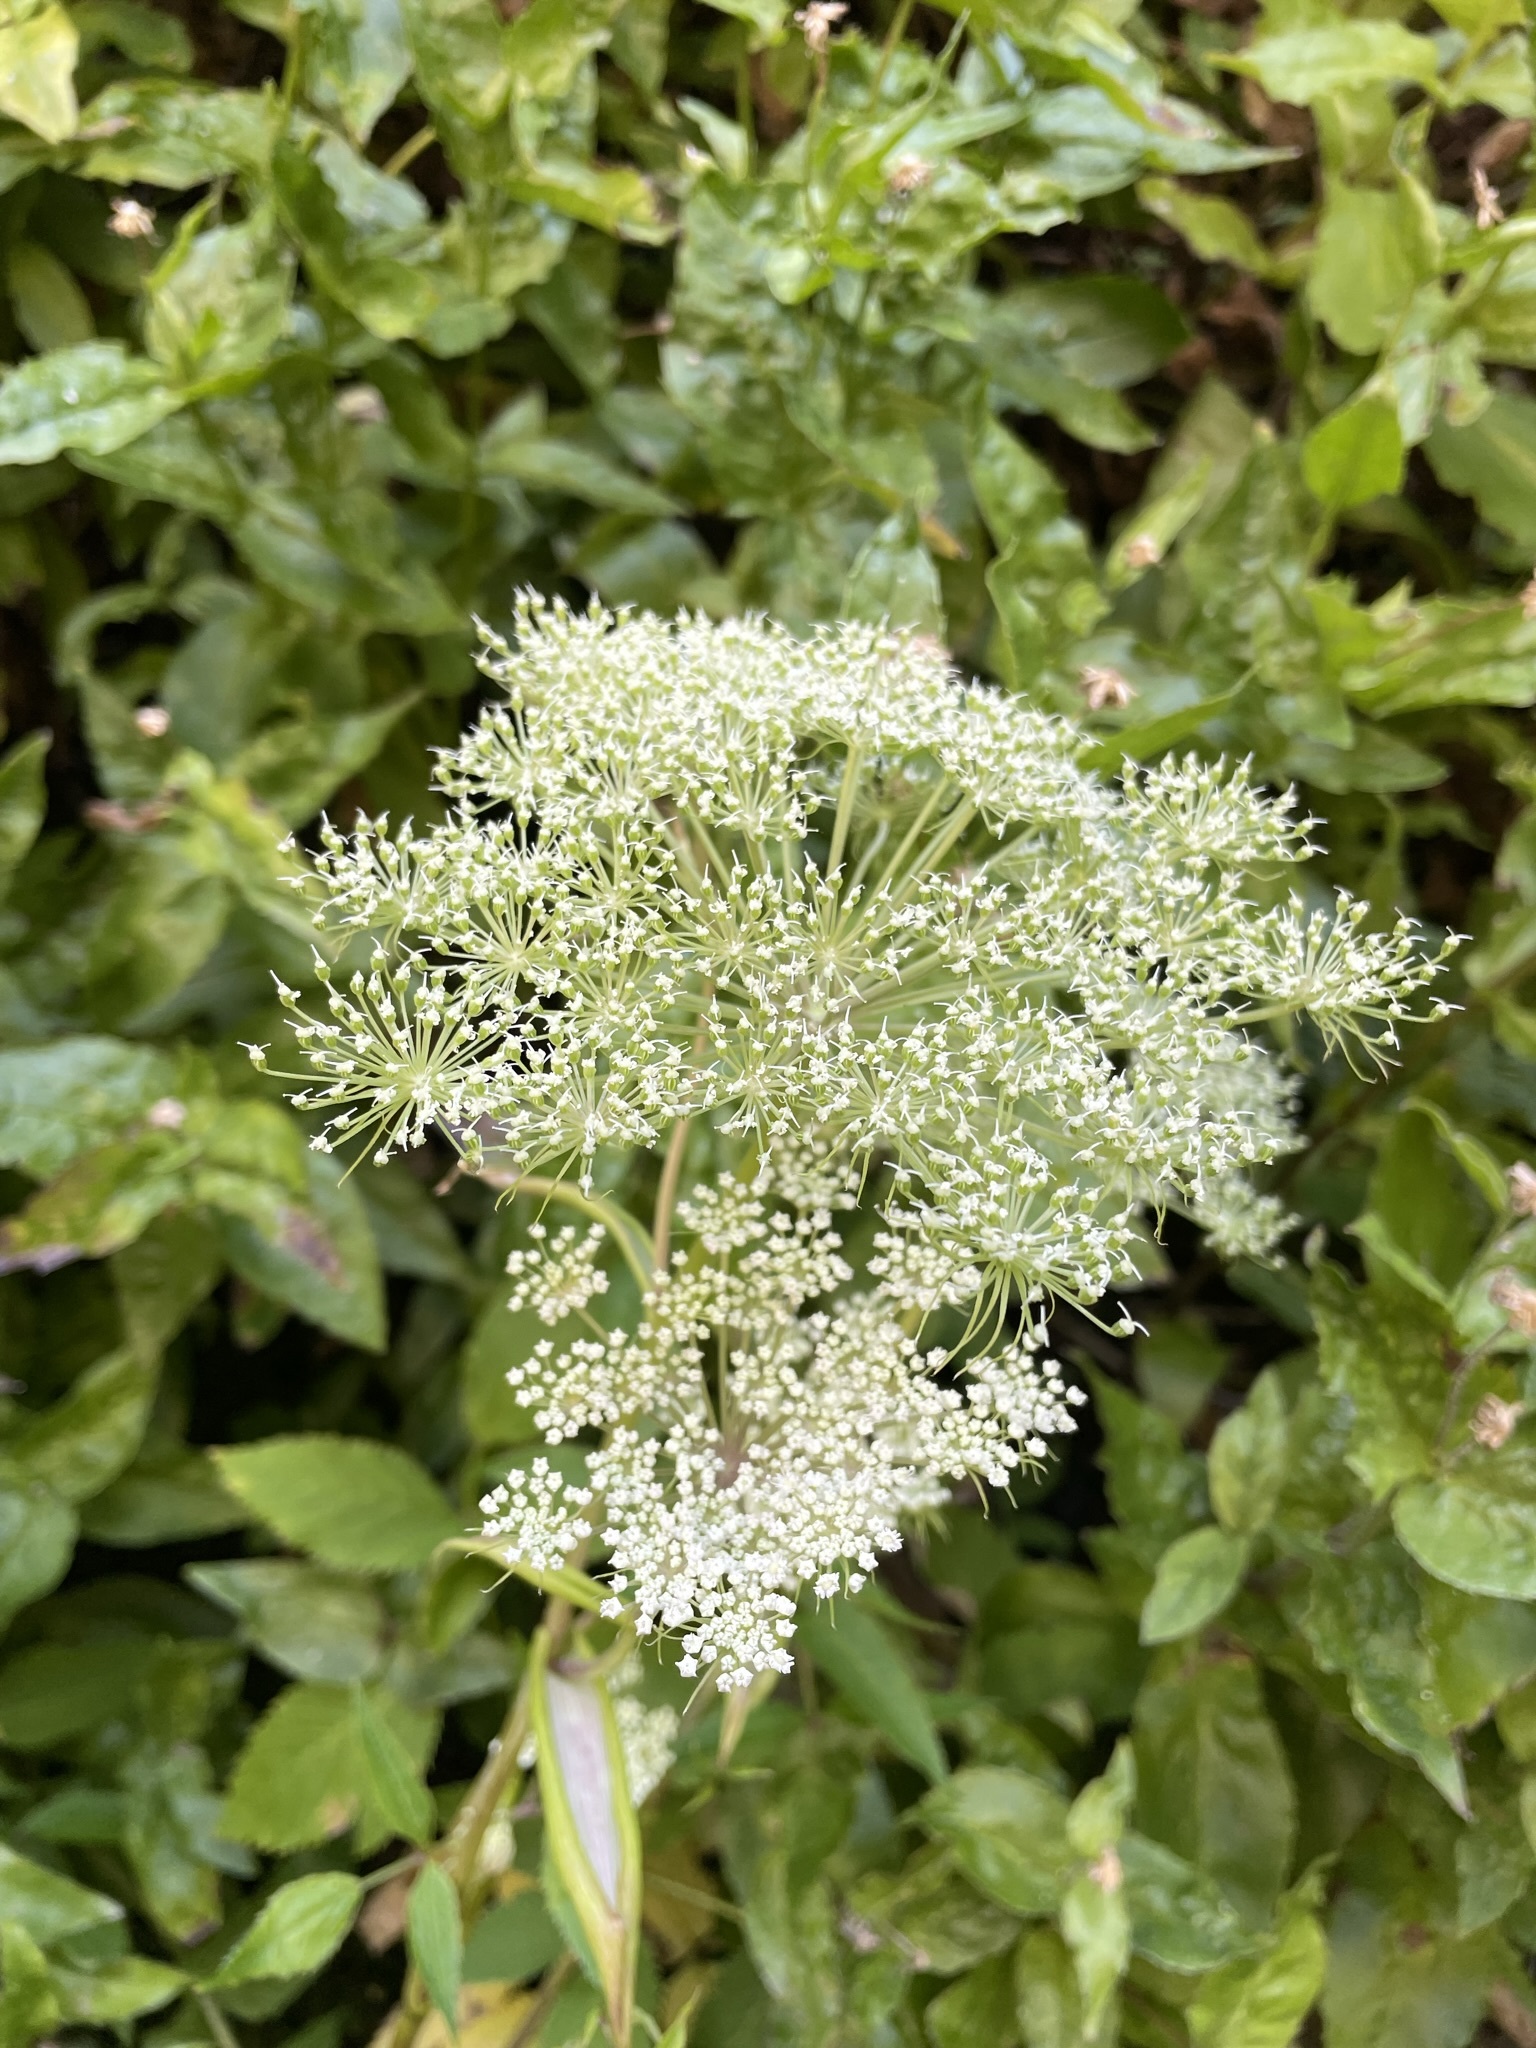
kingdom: Plantae
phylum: Tracheophyta
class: Magnoliopsida
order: Apiales
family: Apiaceae
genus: Angelica
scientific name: Angelica genuflexa
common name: Kneeling angelica
